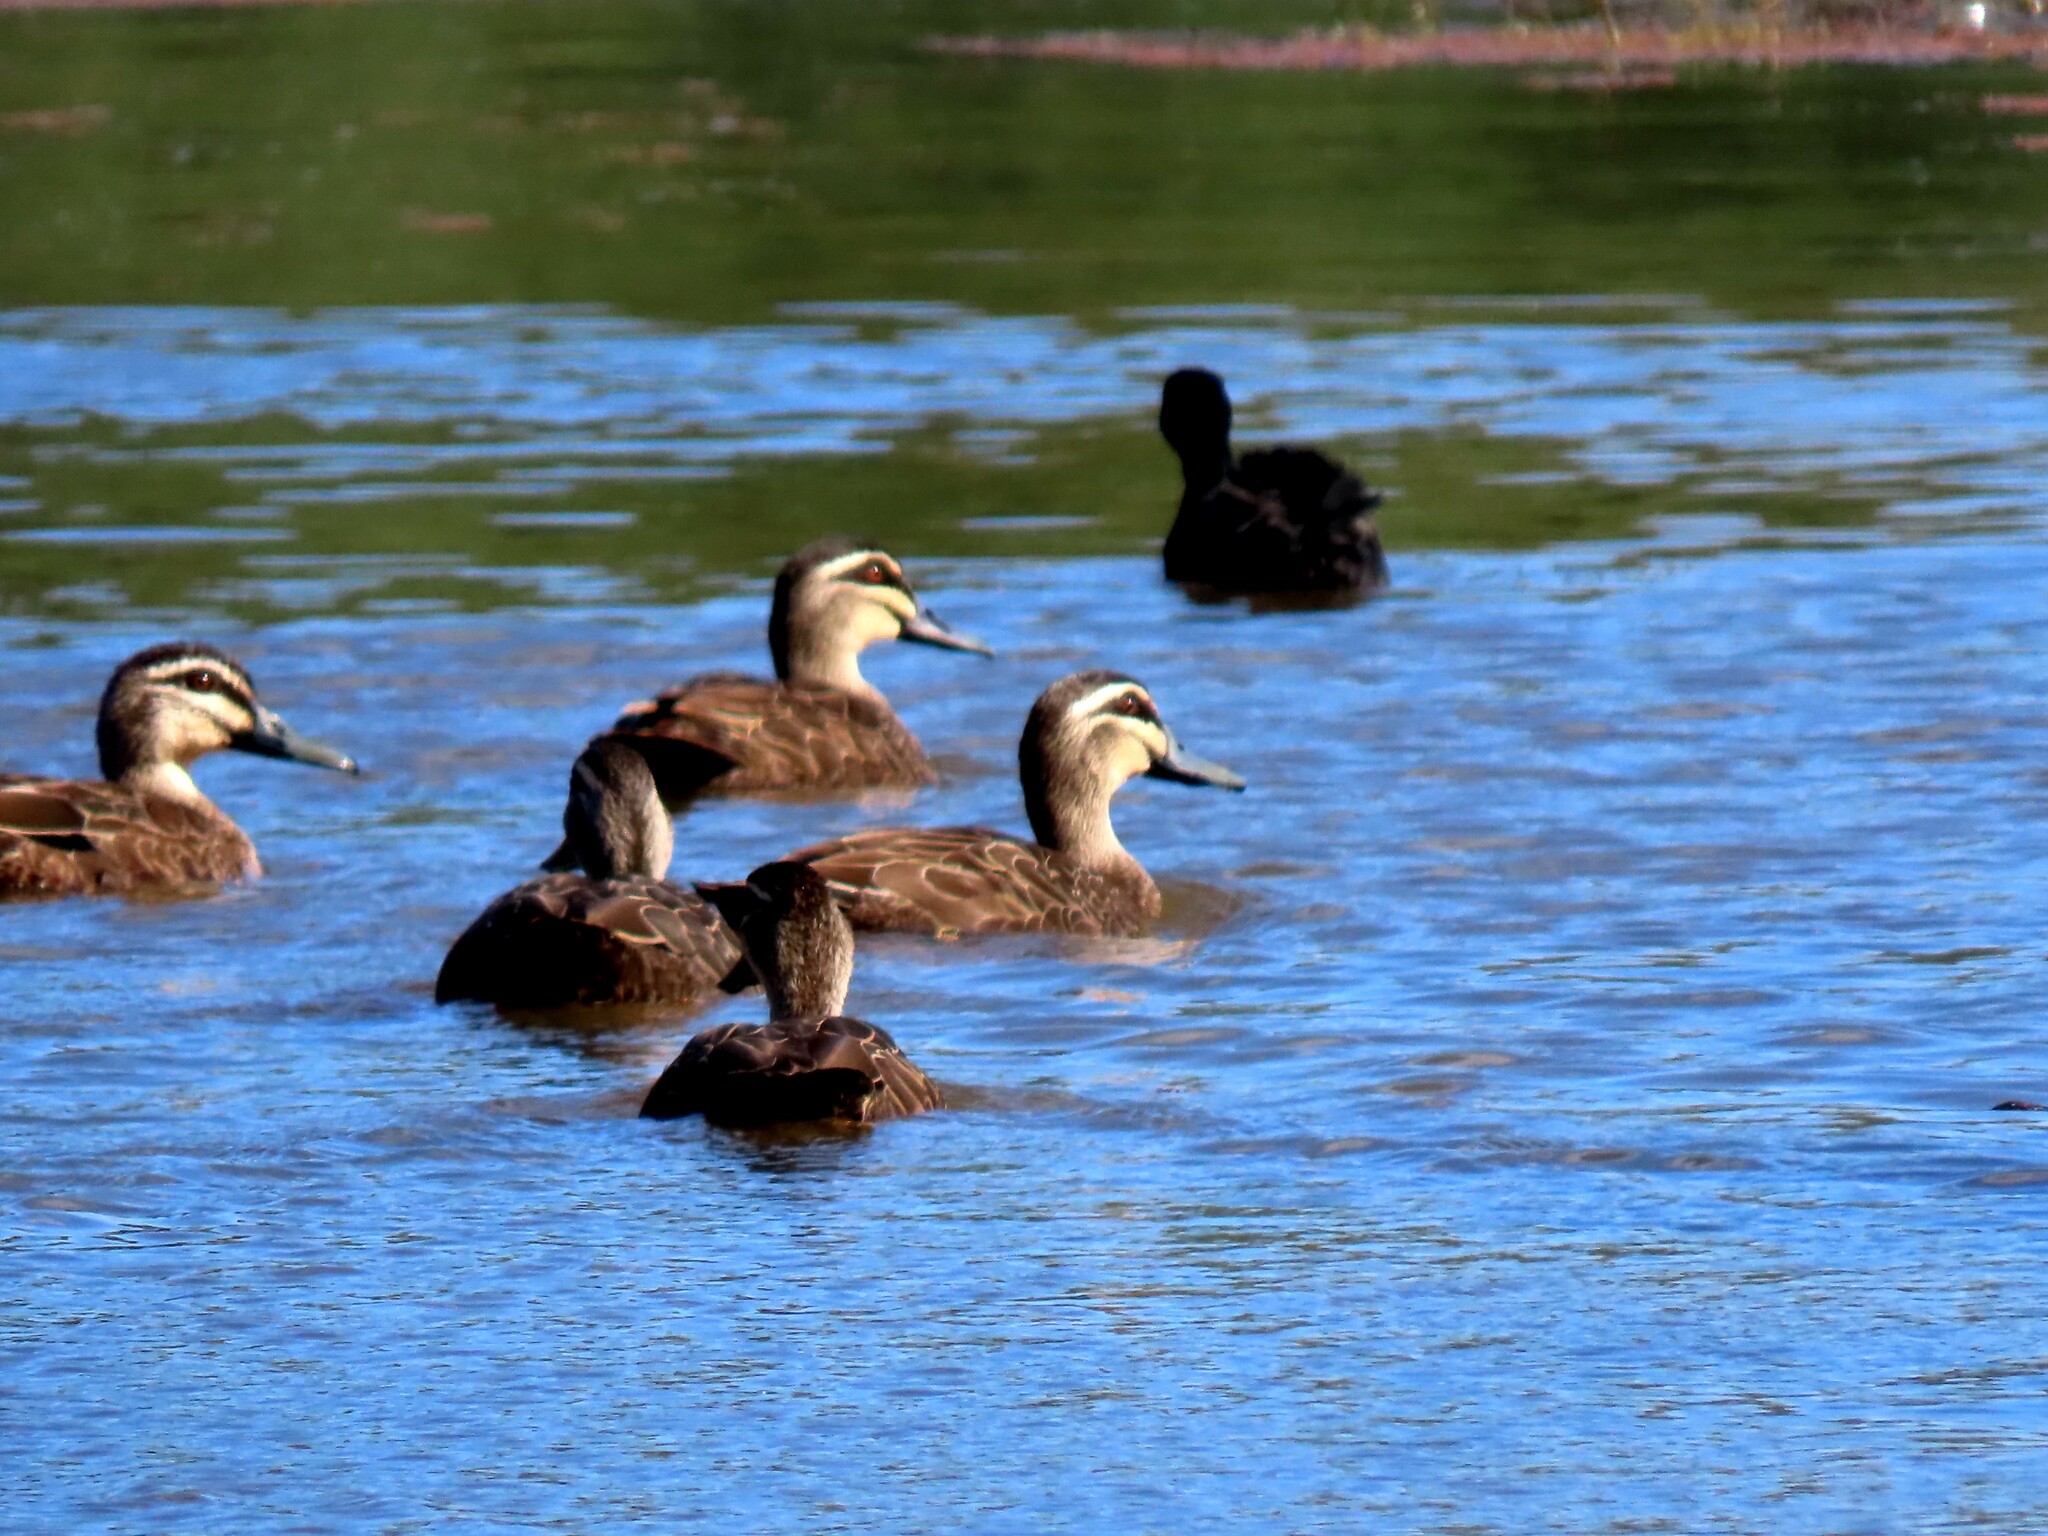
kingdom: Animalia
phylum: Chordata
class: Aves
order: Anseriformes
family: Anatidae
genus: Anas
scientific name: Anas superciliosa
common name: Pacific black duck
